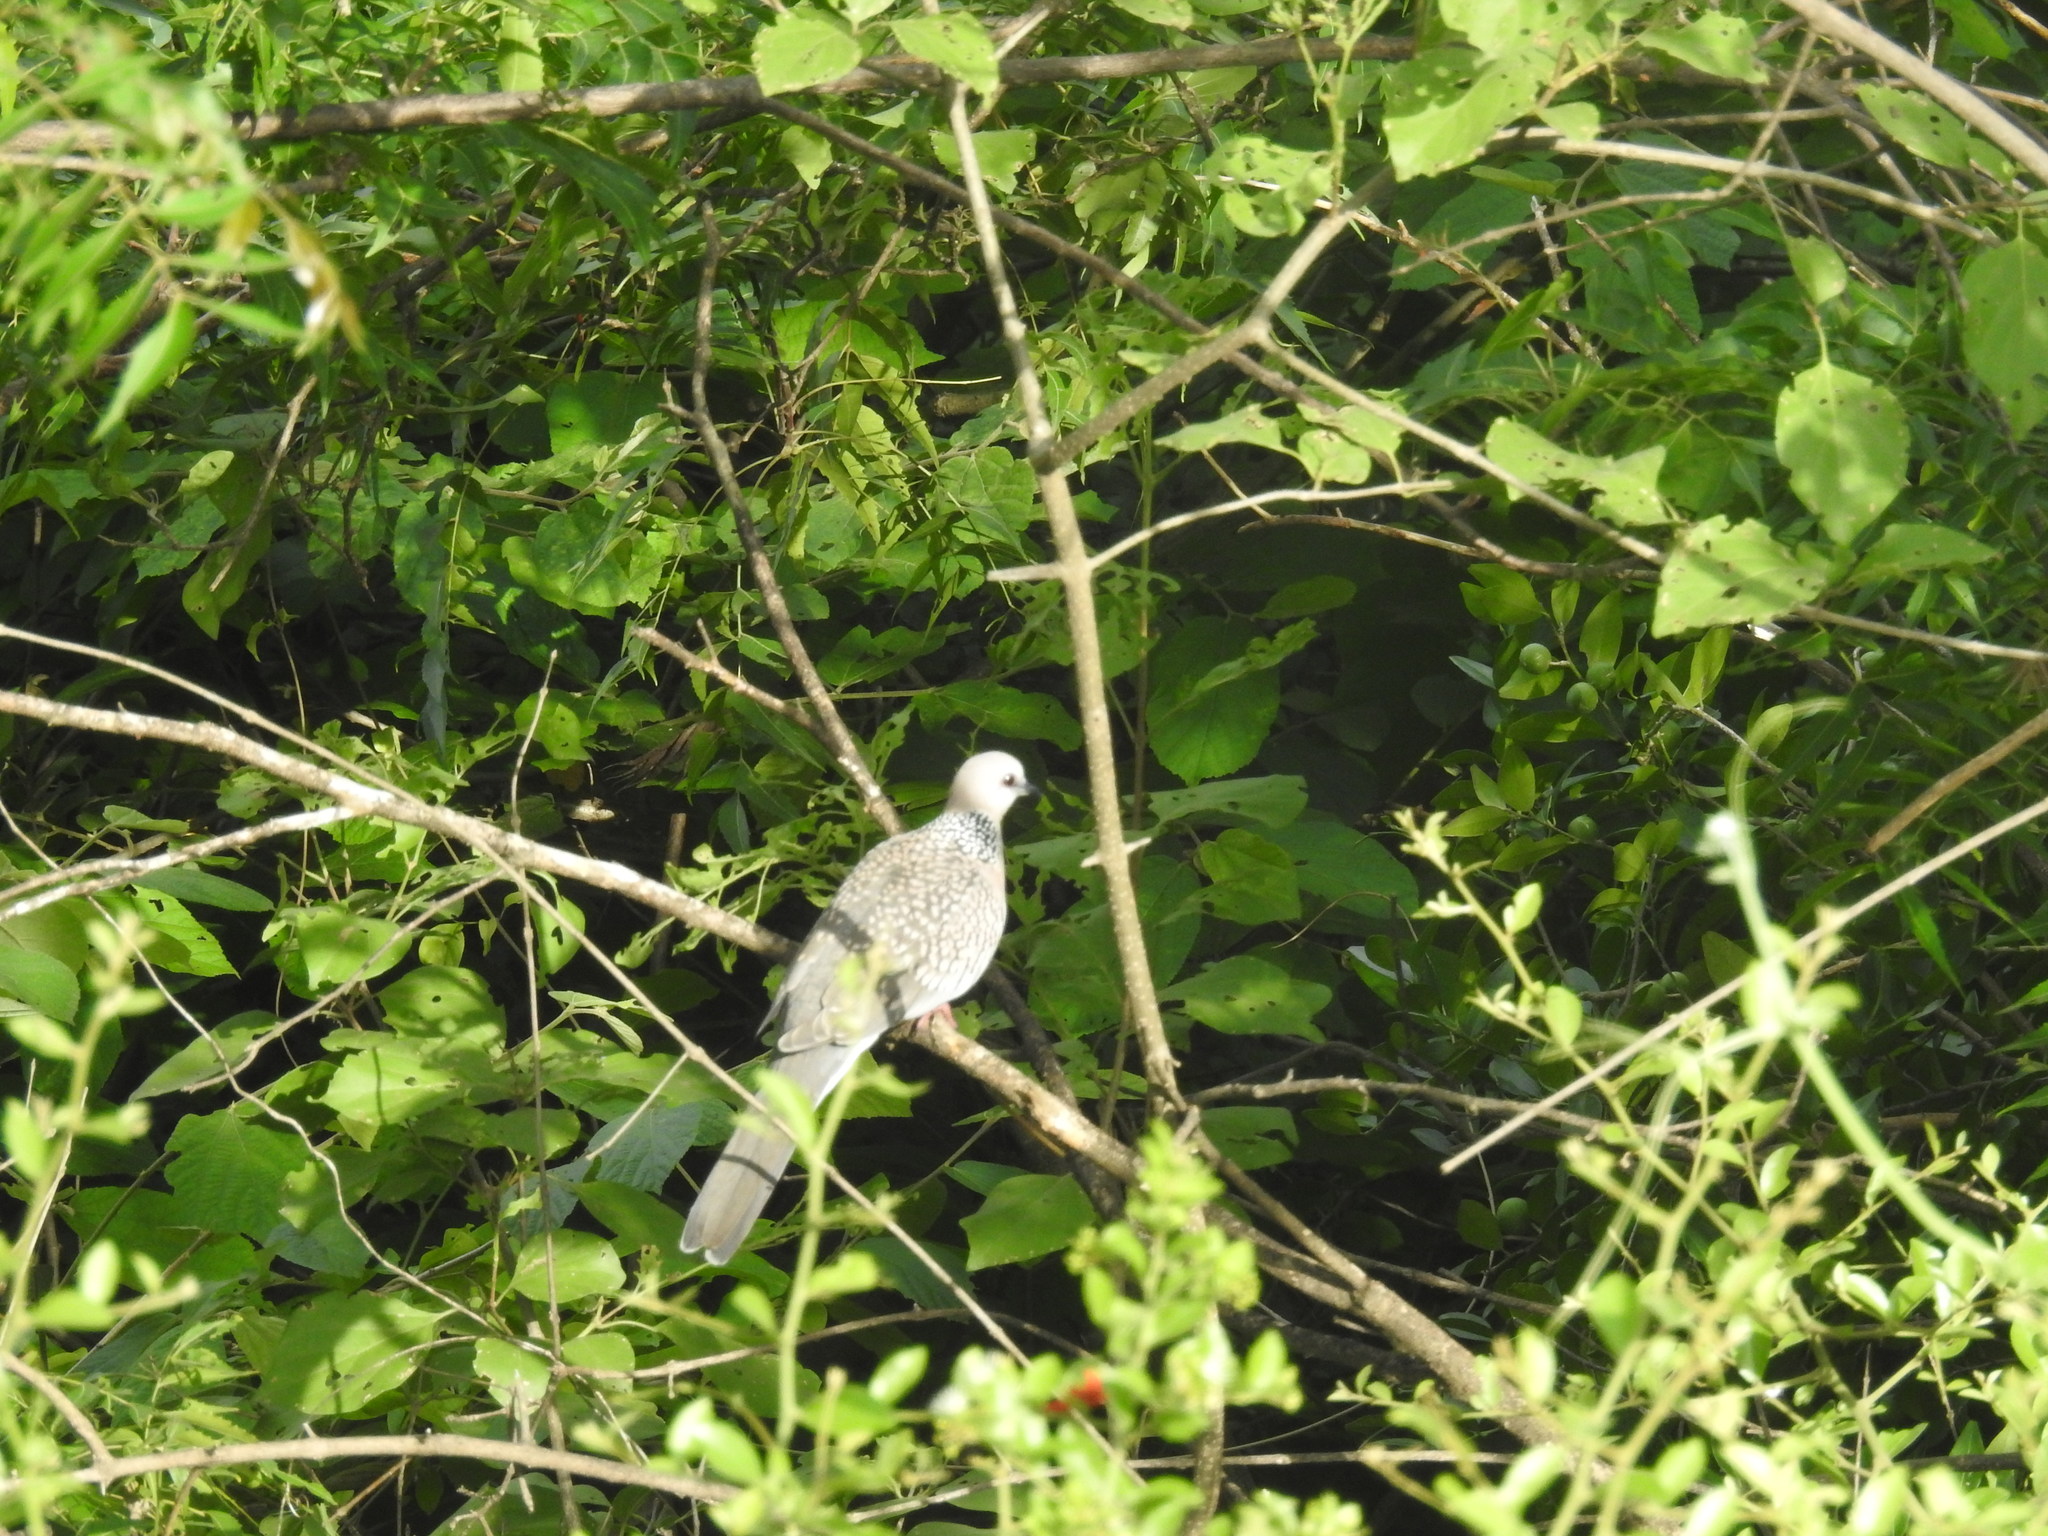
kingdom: Animalia
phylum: Chordata
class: Aves
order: Columbiformes
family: Columbidae
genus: Spilopelia
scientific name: Spilopelia chinensis
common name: Spotted dove
